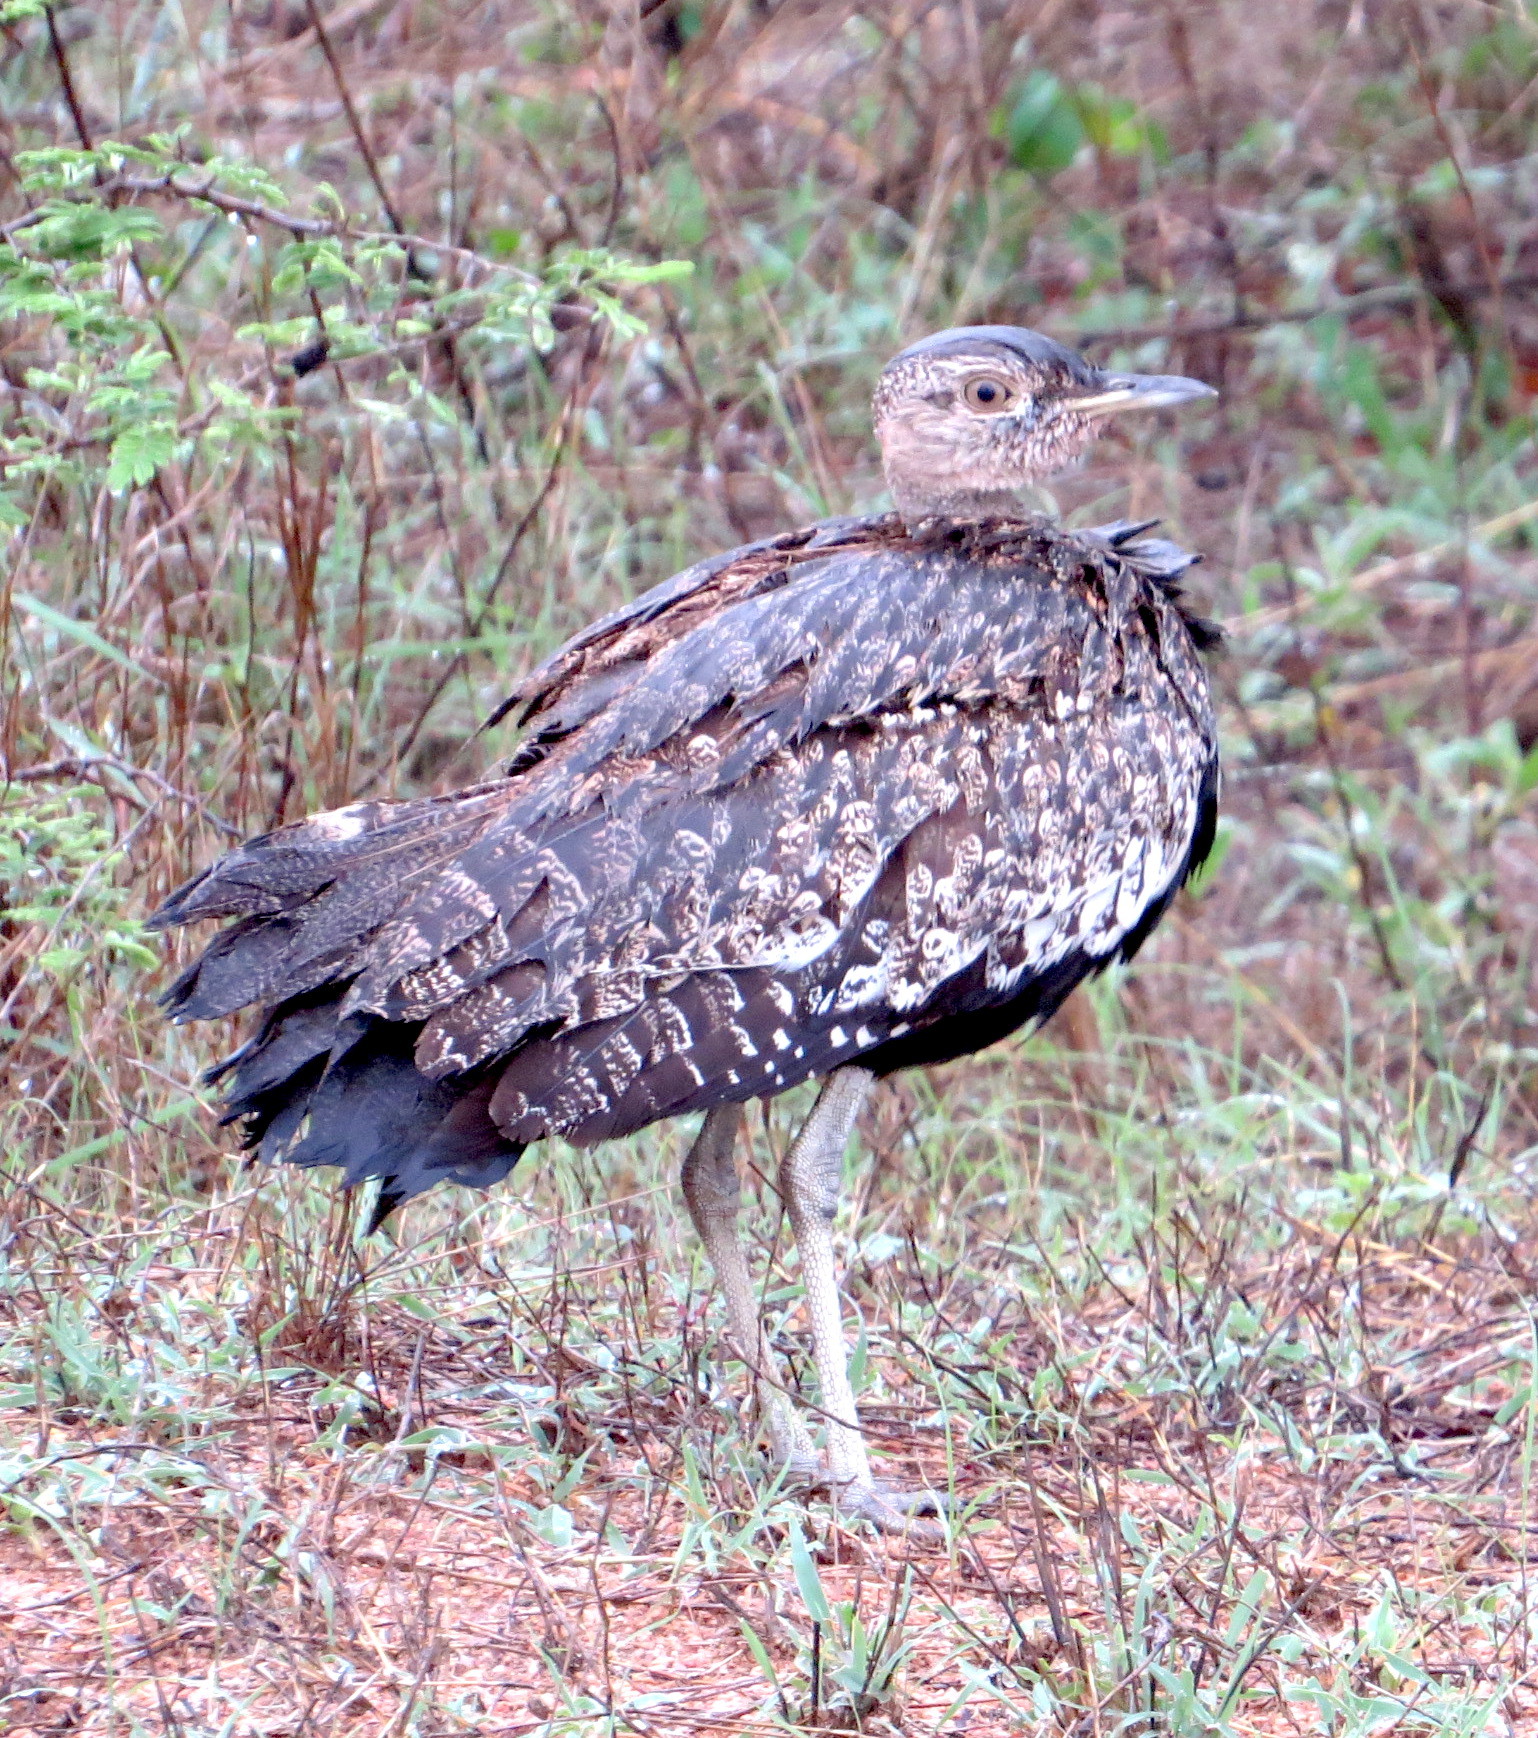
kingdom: Animalia
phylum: Chordata
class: Aves
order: Otidiformes
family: Otididae
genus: Lophotis
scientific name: Lophotis ruficrista
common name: Red-crested korhaan
